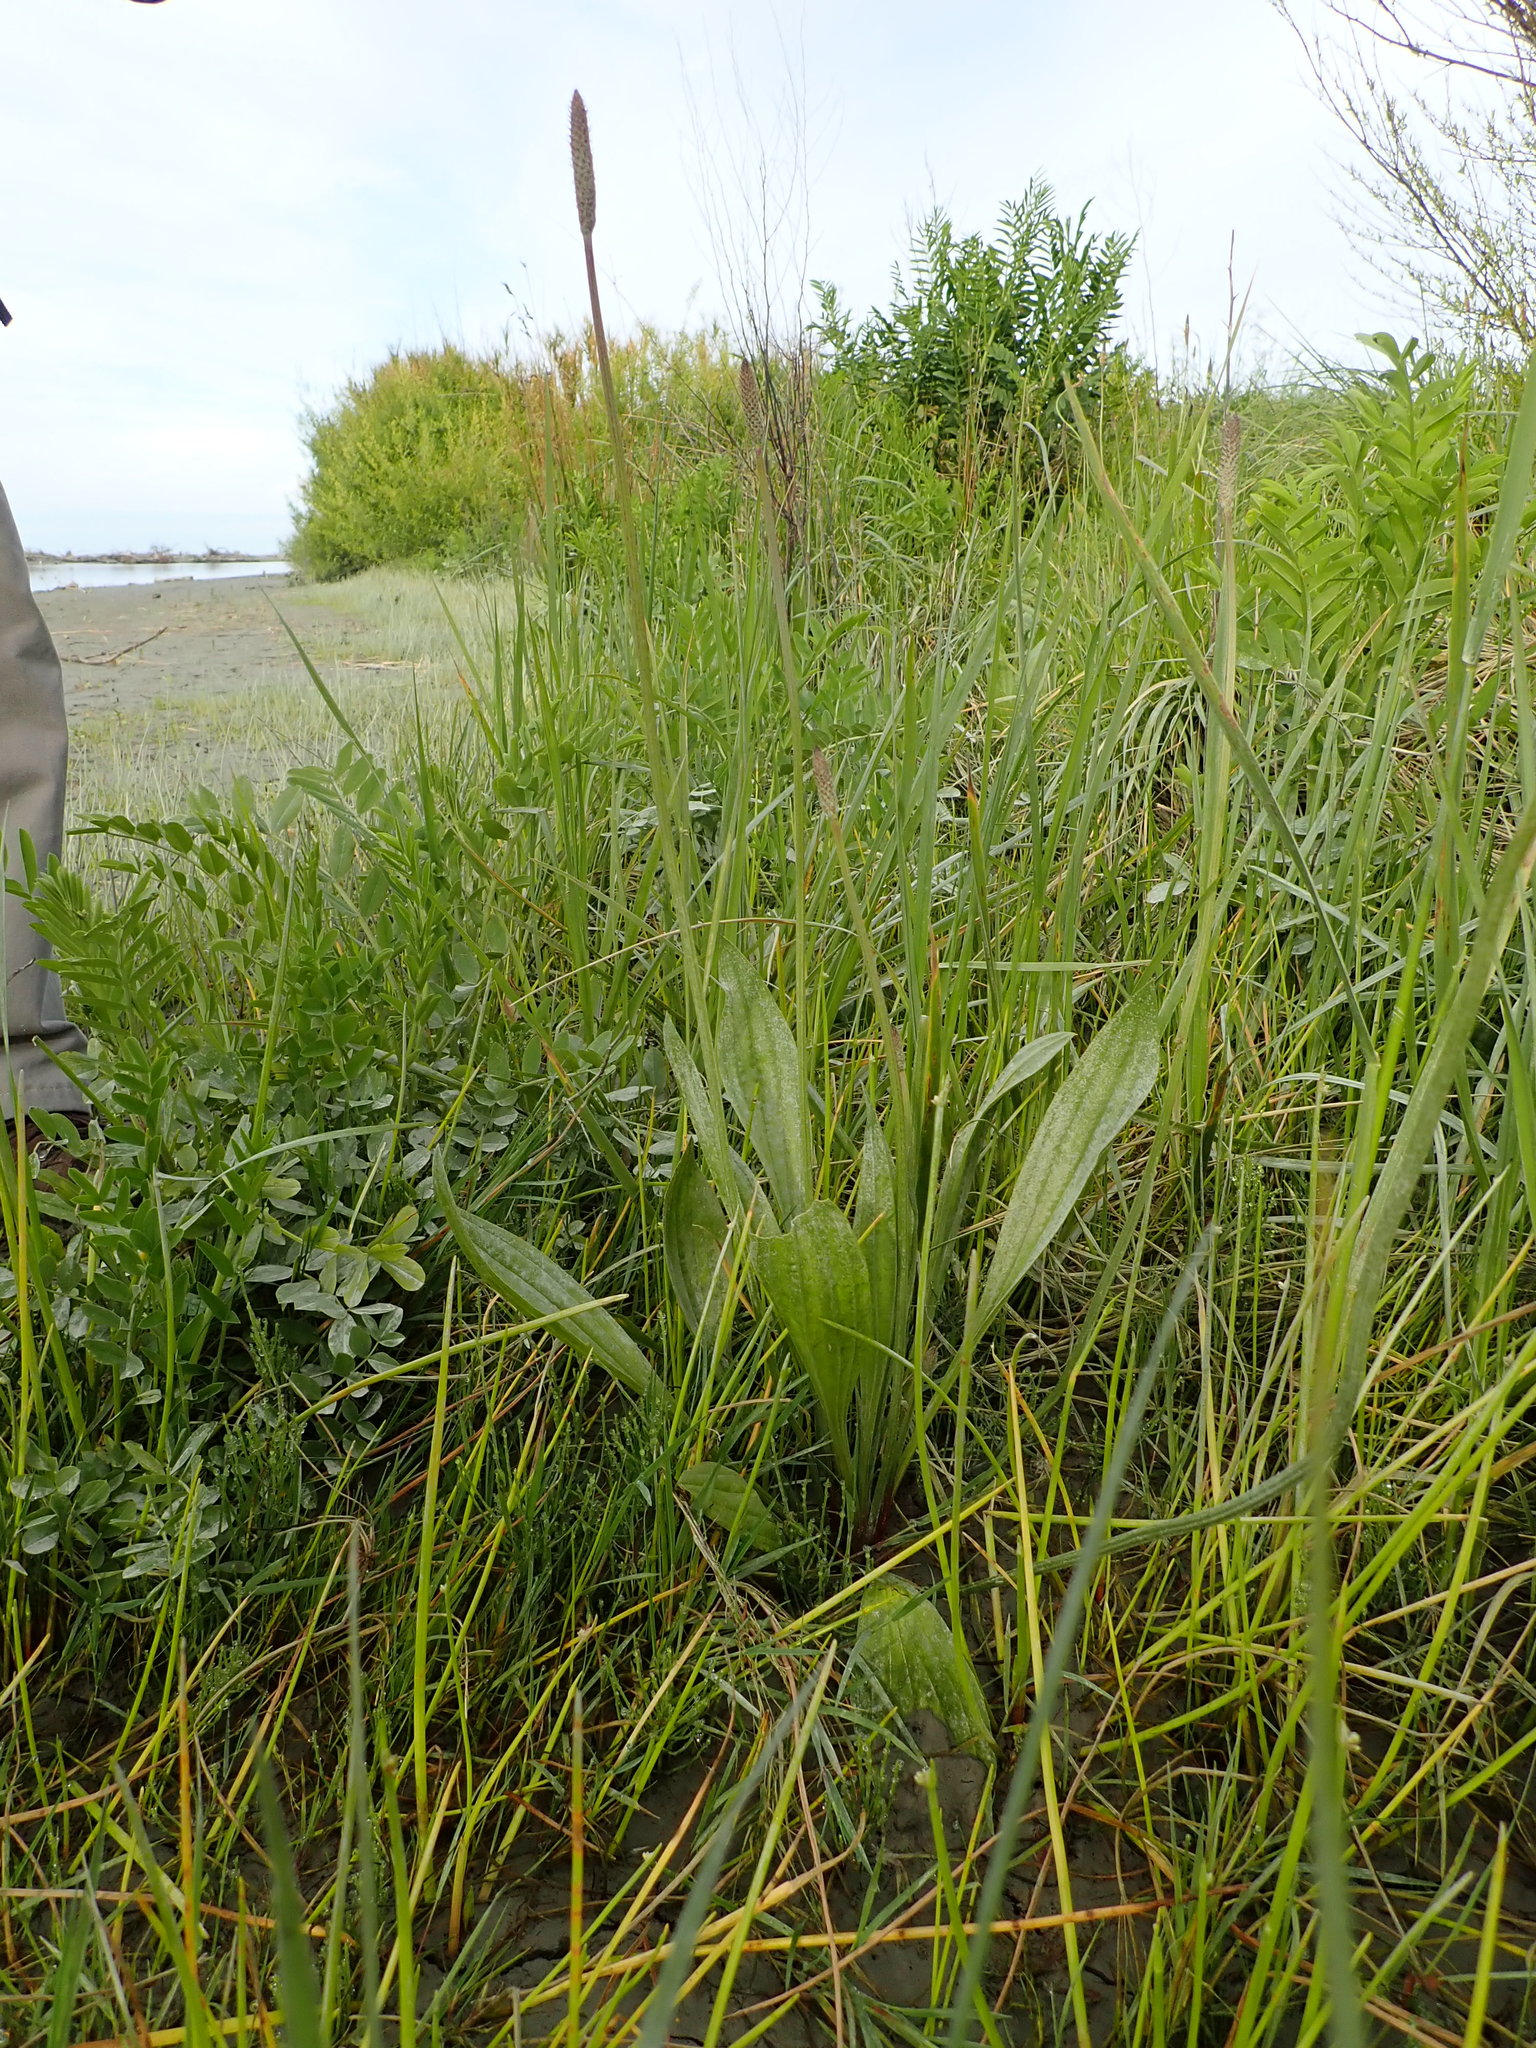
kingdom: Plantae
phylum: Tracheophyta
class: Magnoliopsida
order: Lamiales
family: Plantaginaceae
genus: Plantago
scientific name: Plantago lanceolata
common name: Ribwort plantain
